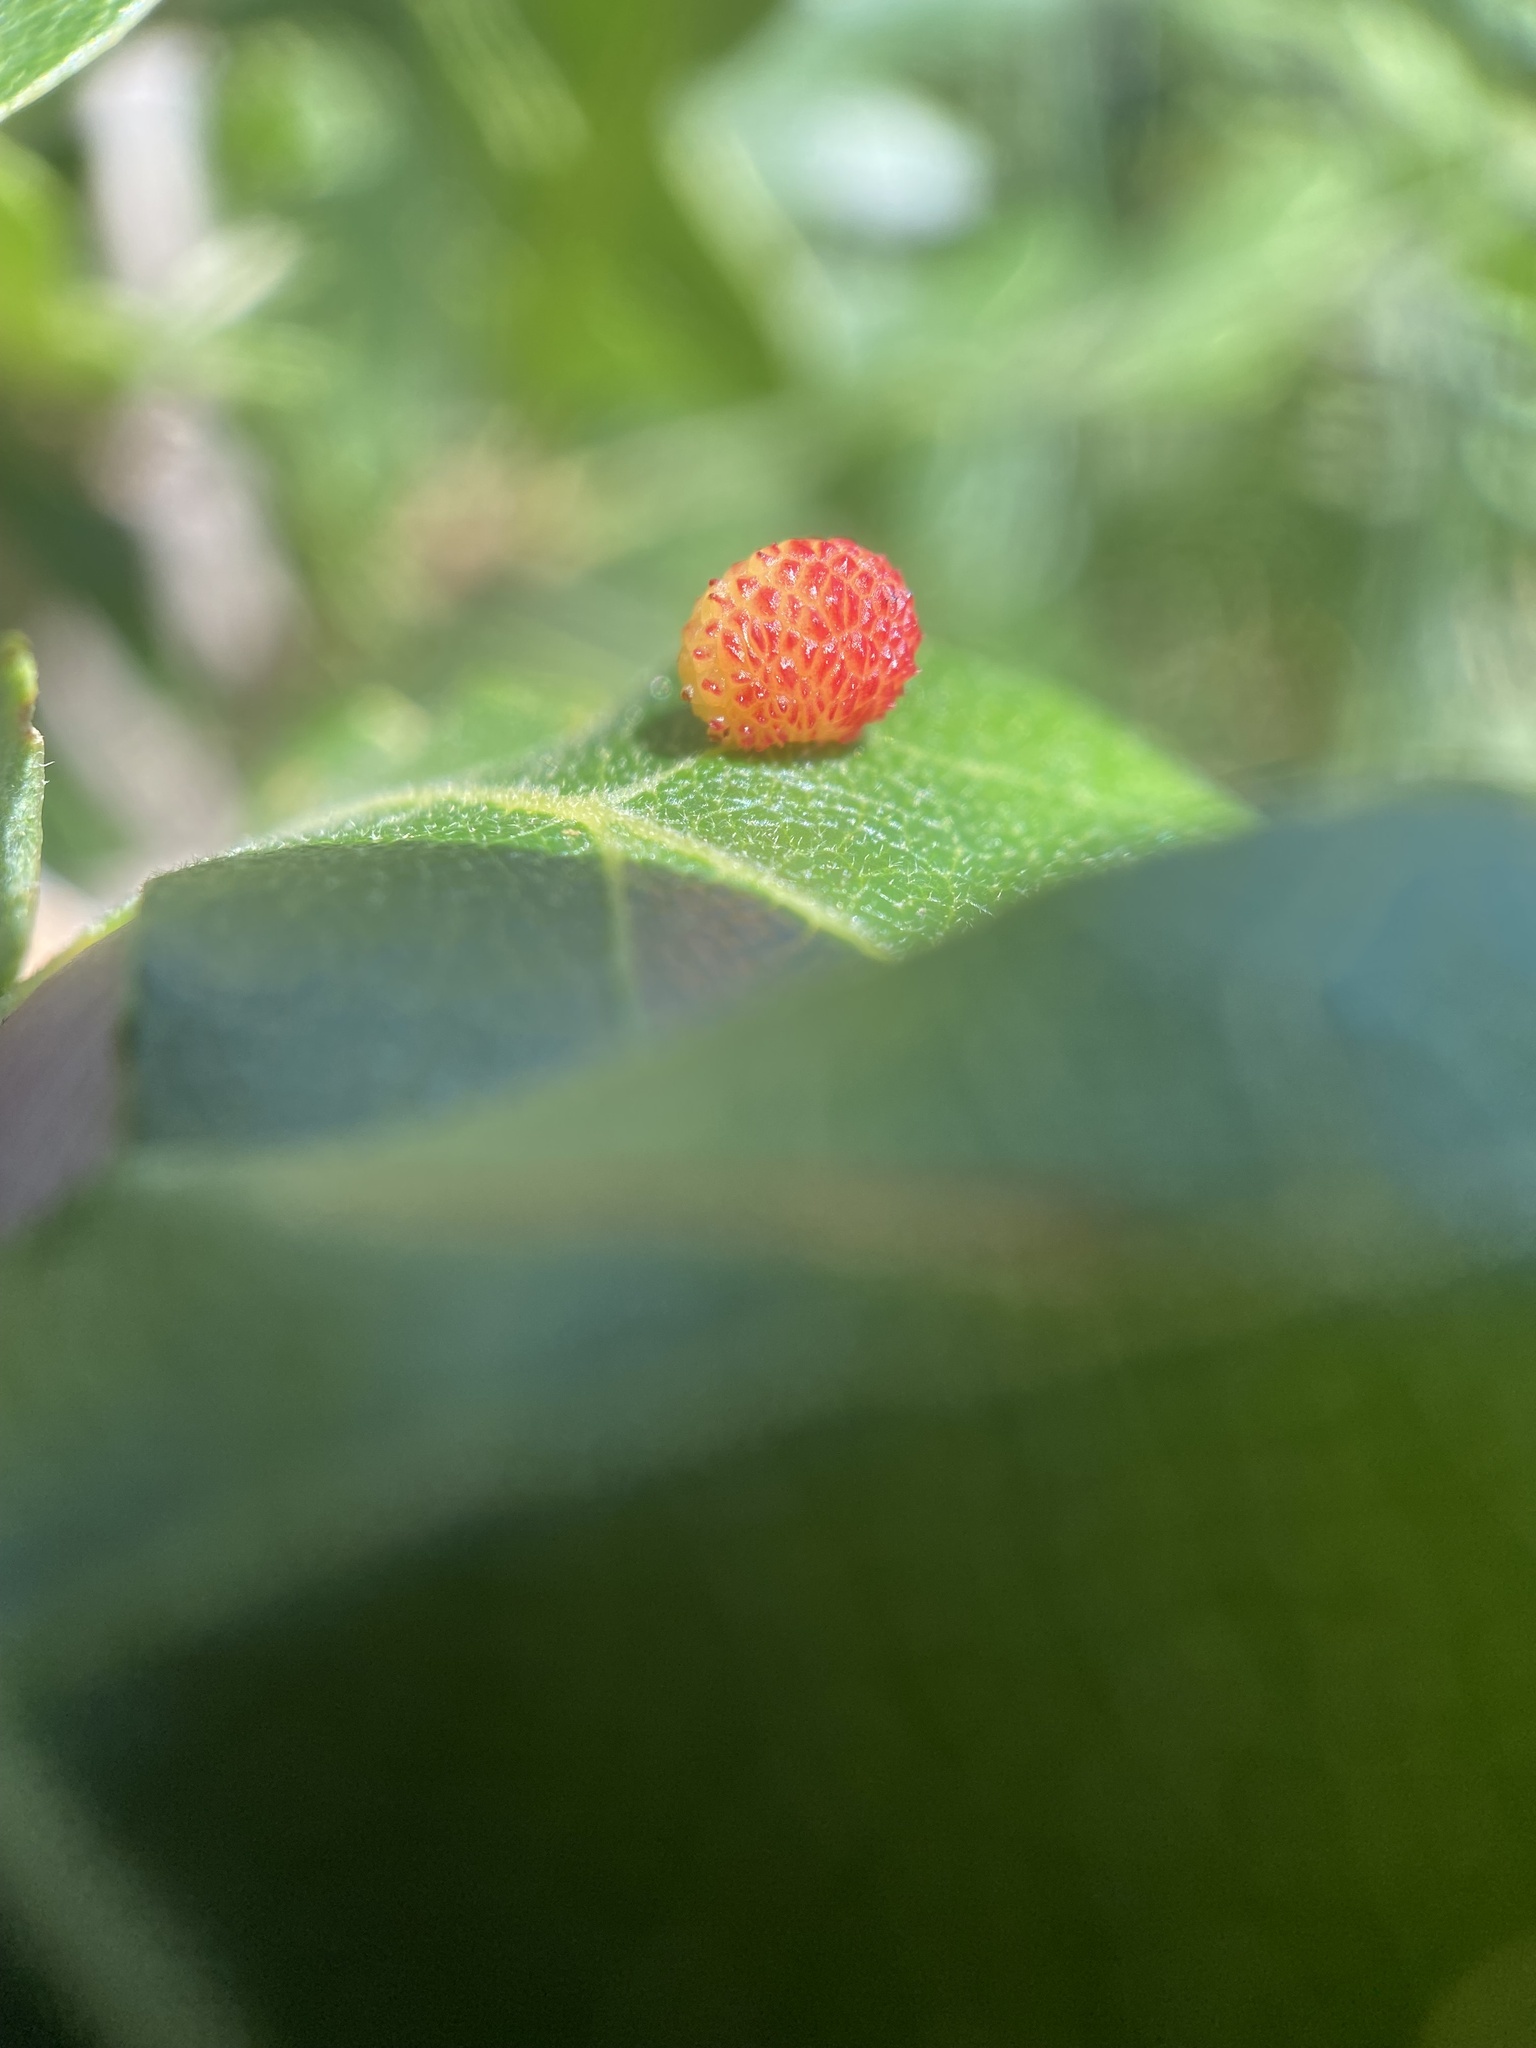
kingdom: Animalia
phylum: Arthropoda
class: Insecta
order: Hymenoptera
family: Cynipidae
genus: Acraspis
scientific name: Acraspis quercushirta
